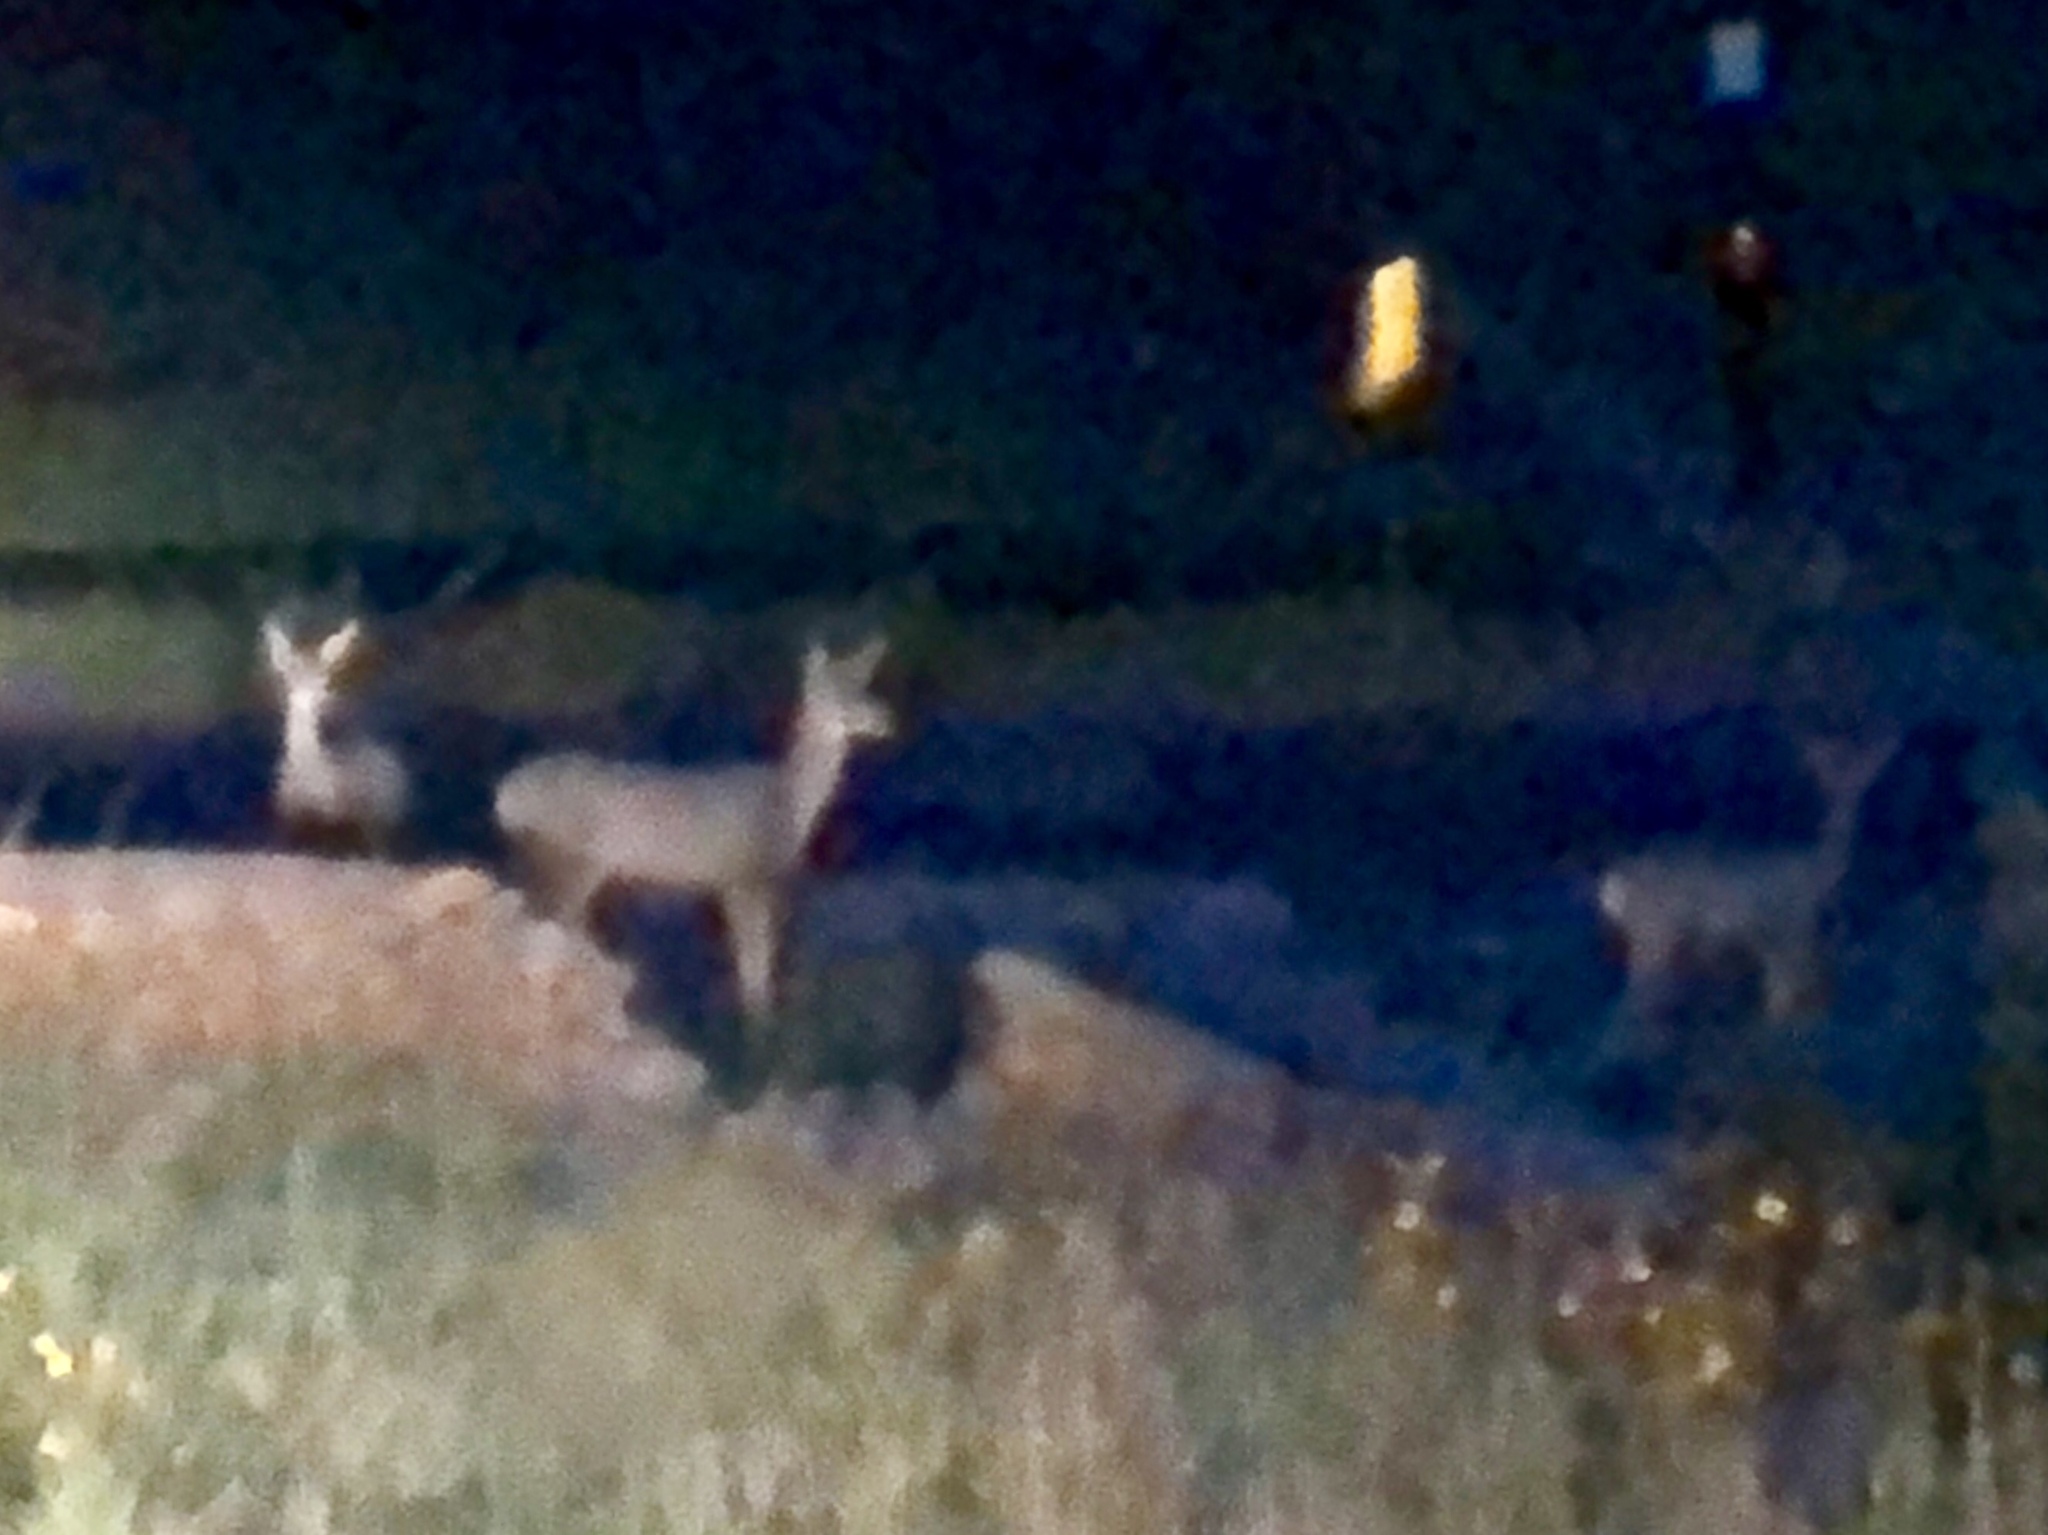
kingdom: Animalia
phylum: Chordata
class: Mammalia
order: Artiodactyla
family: Cervidae
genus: Odocoileus
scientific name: Odocoileus hemionus
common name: Mule deer
